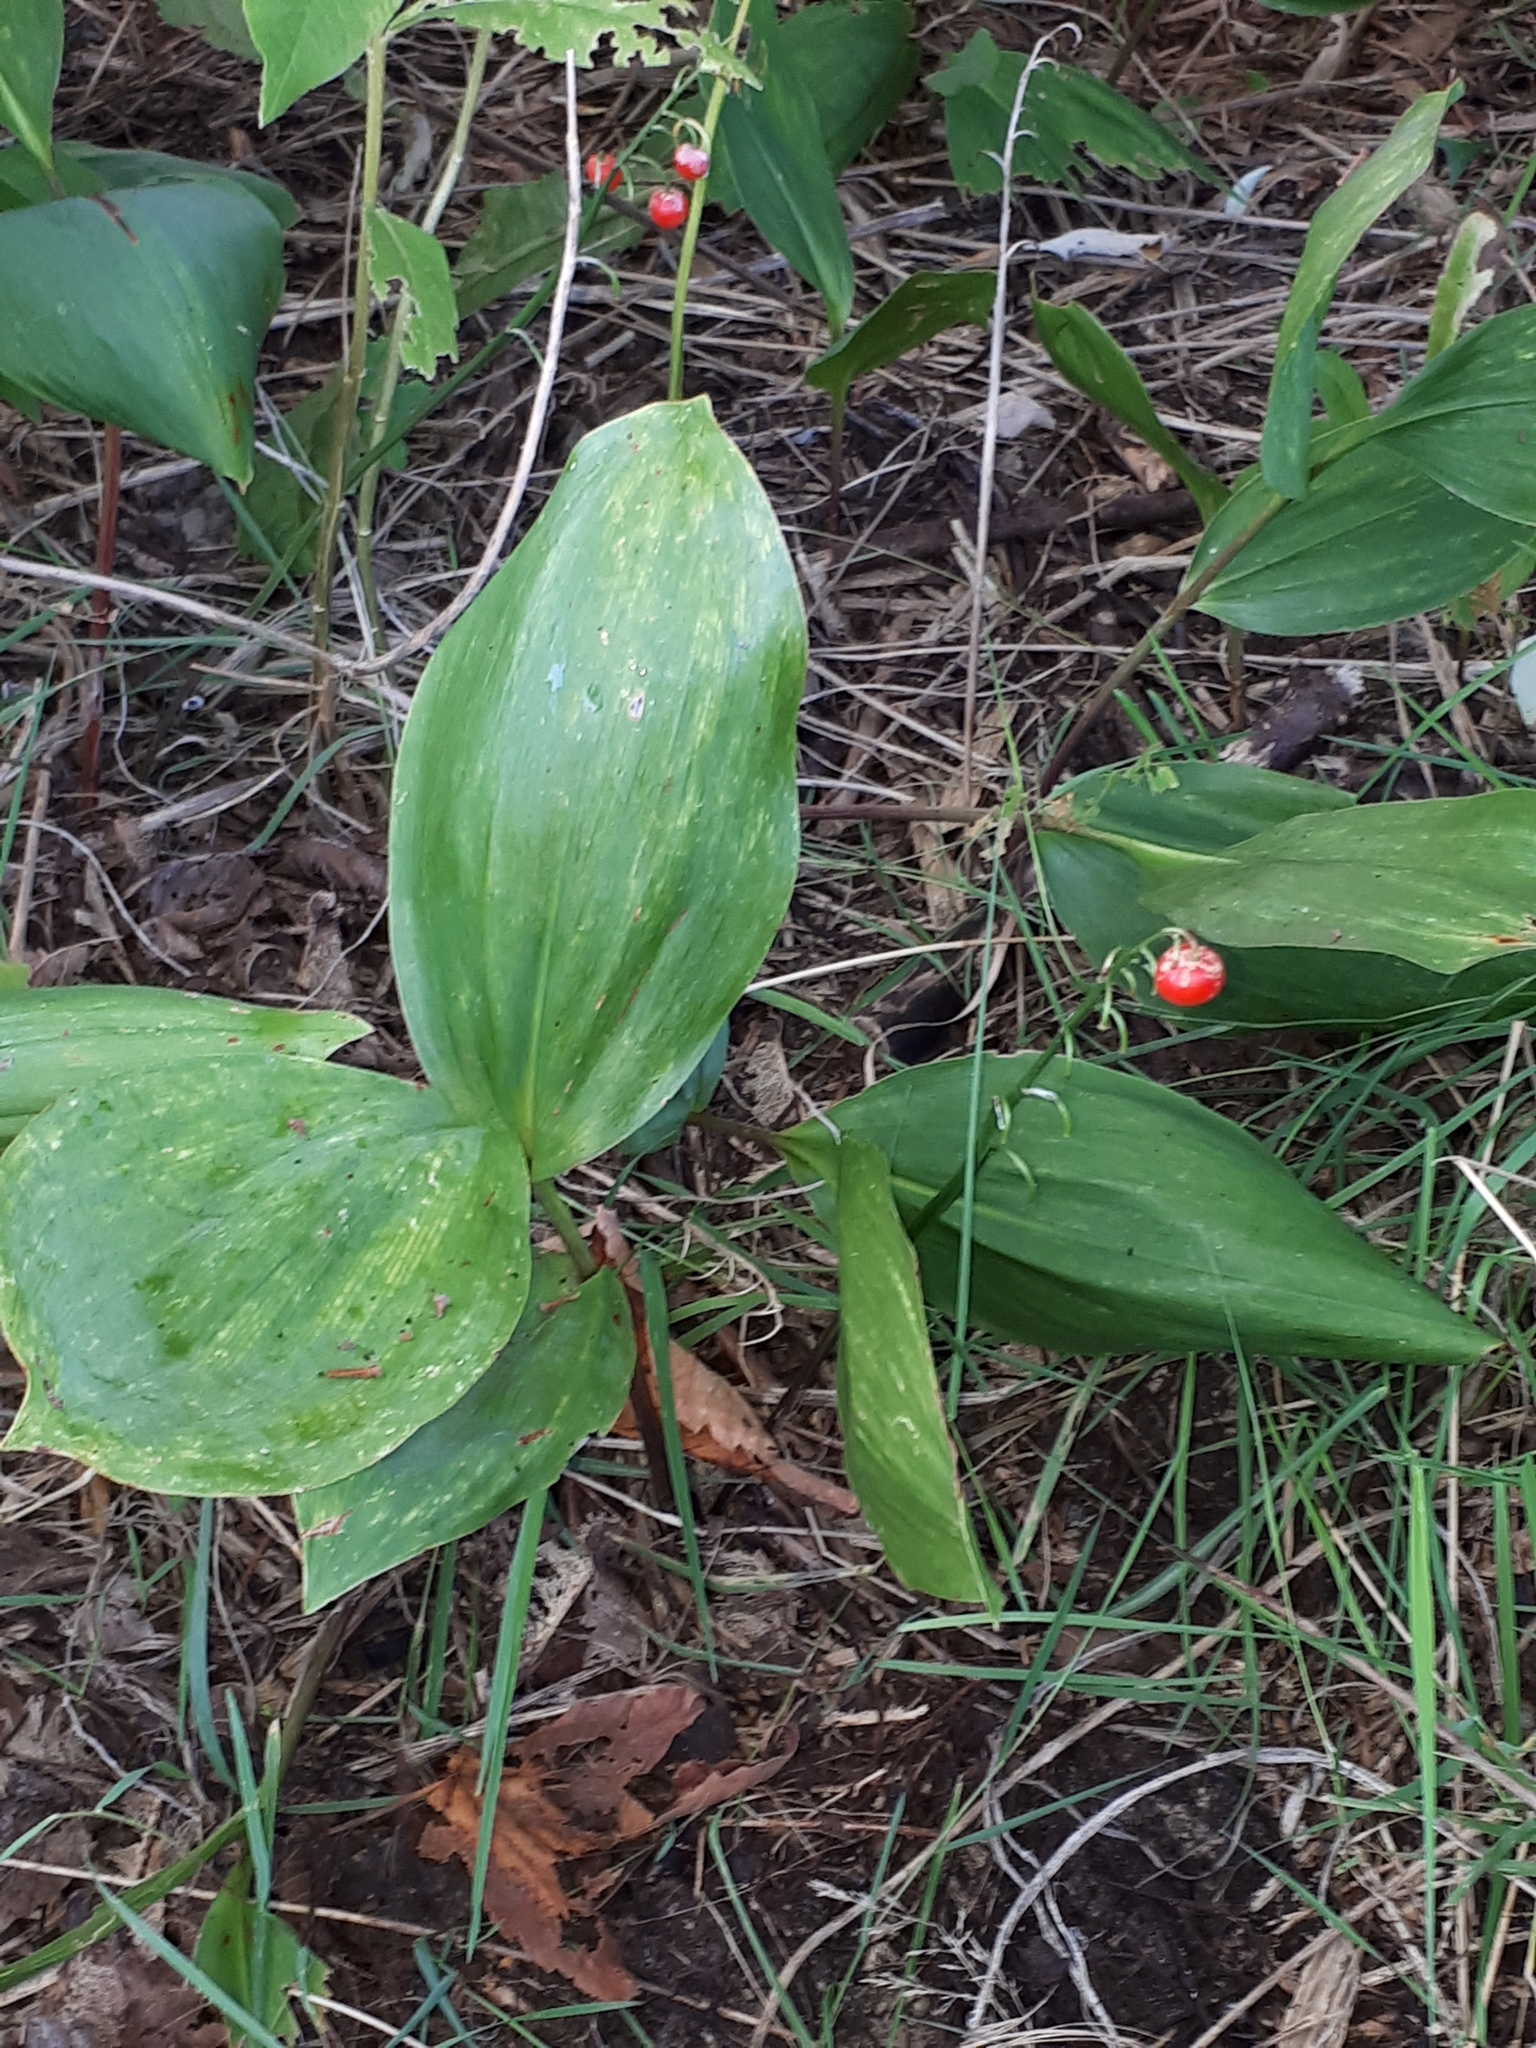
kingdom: Plantae
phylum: Tracheophyta
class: Liliopsida
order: Asparagales
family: Asparagaceae
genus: Convallaria
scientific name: Convallaria majalis
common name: Lily-of-the-valley
